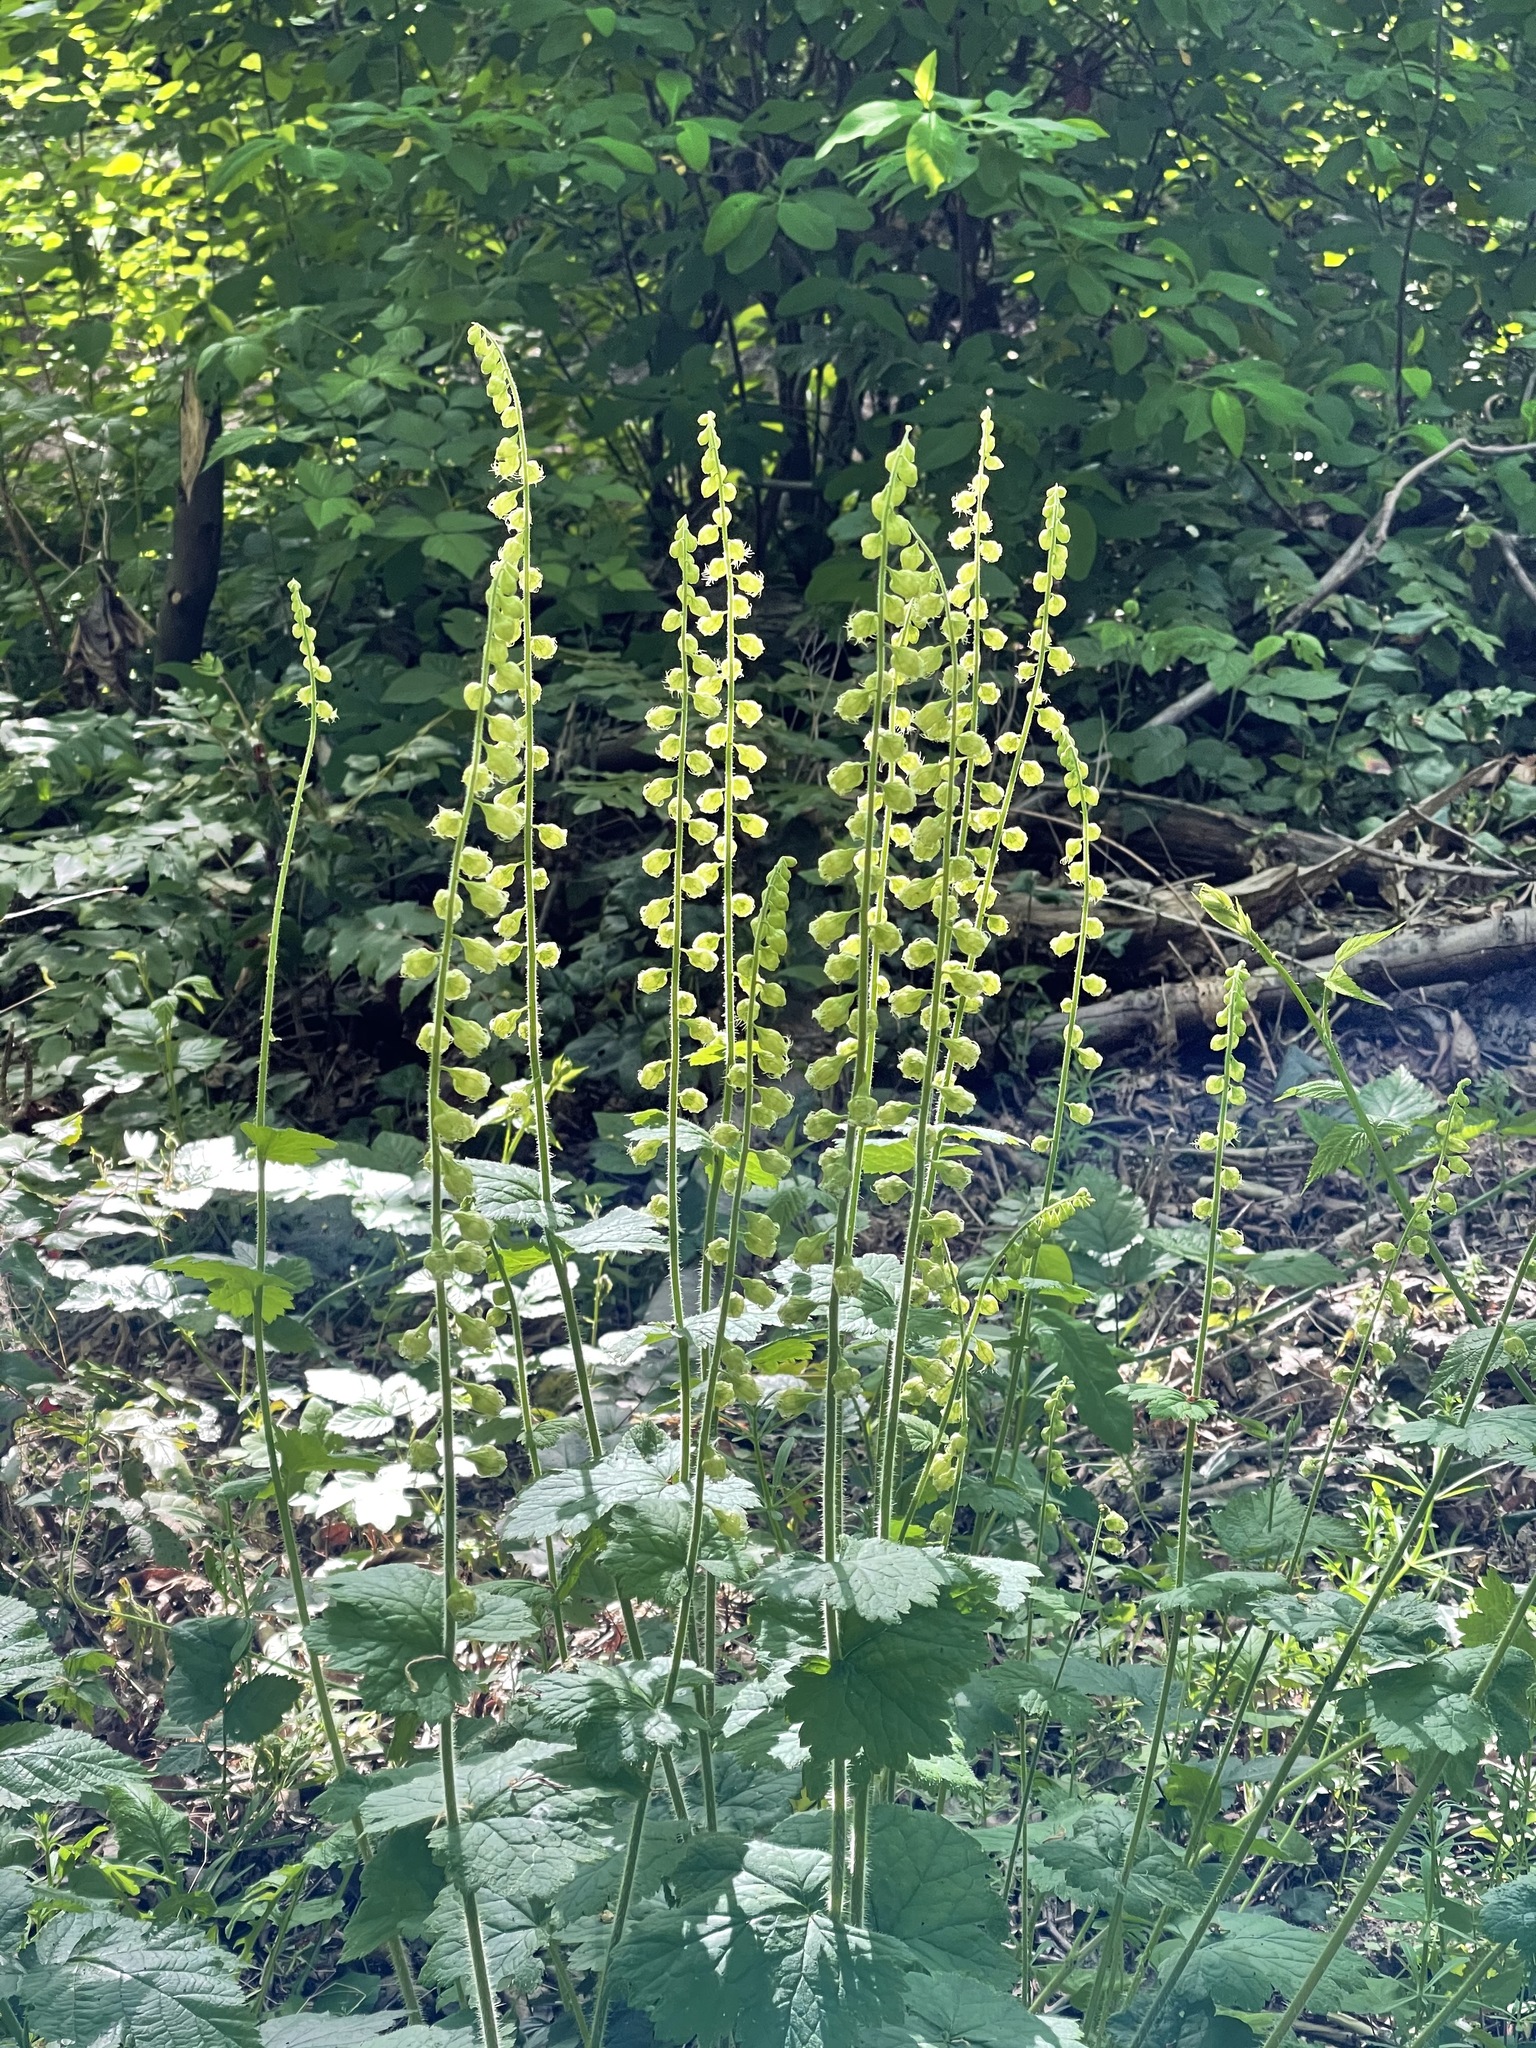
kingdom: Plantae
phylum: Tracheophyta
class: Magnoliopsida
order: Saxifragales
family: Saxifragaceae
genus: Tellima
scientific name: Tellima grandiflora
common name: Fringecups
